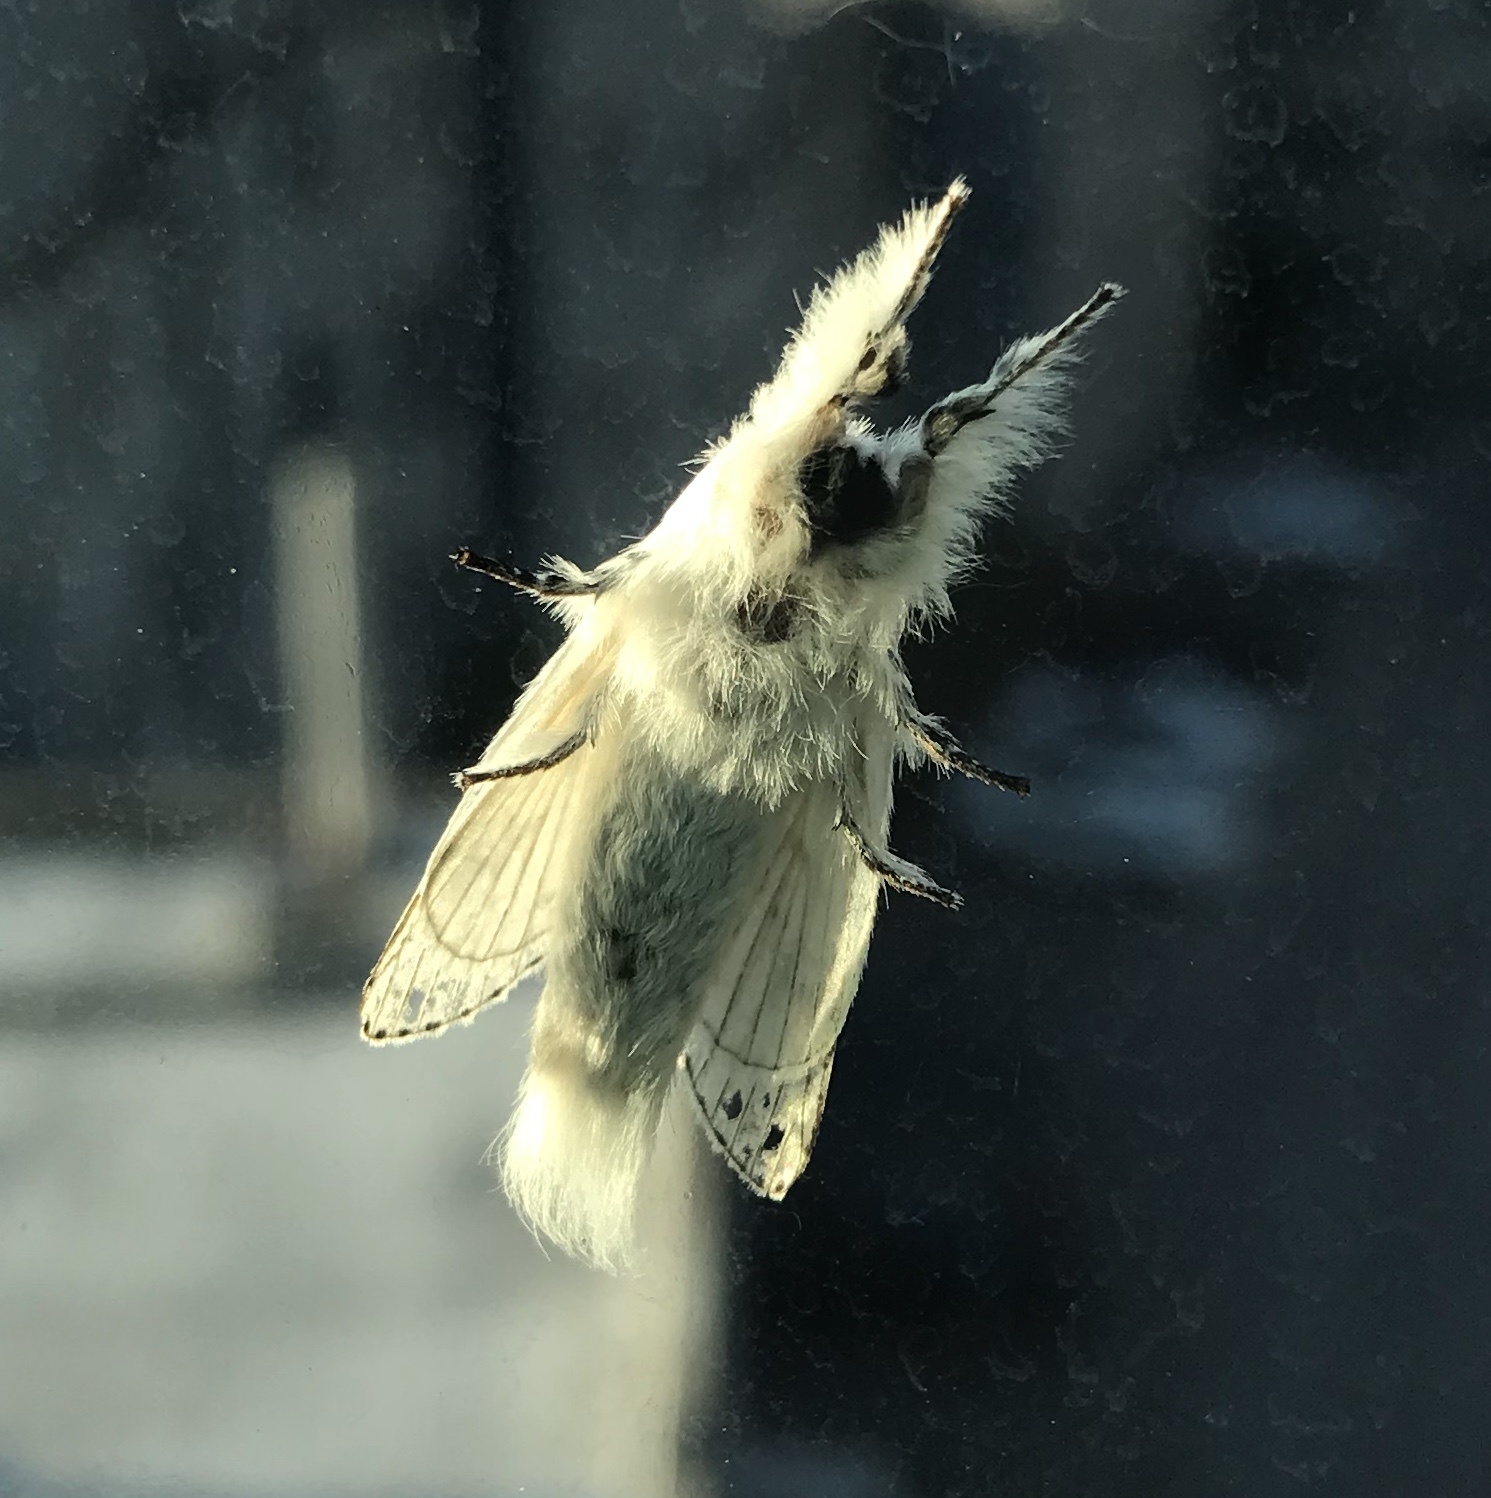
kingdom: Animalia
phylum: Arthropoda
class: Insecta
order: Lepidoptera
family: Lasiocampidae
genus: Artace
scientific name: Artace cribrarius
